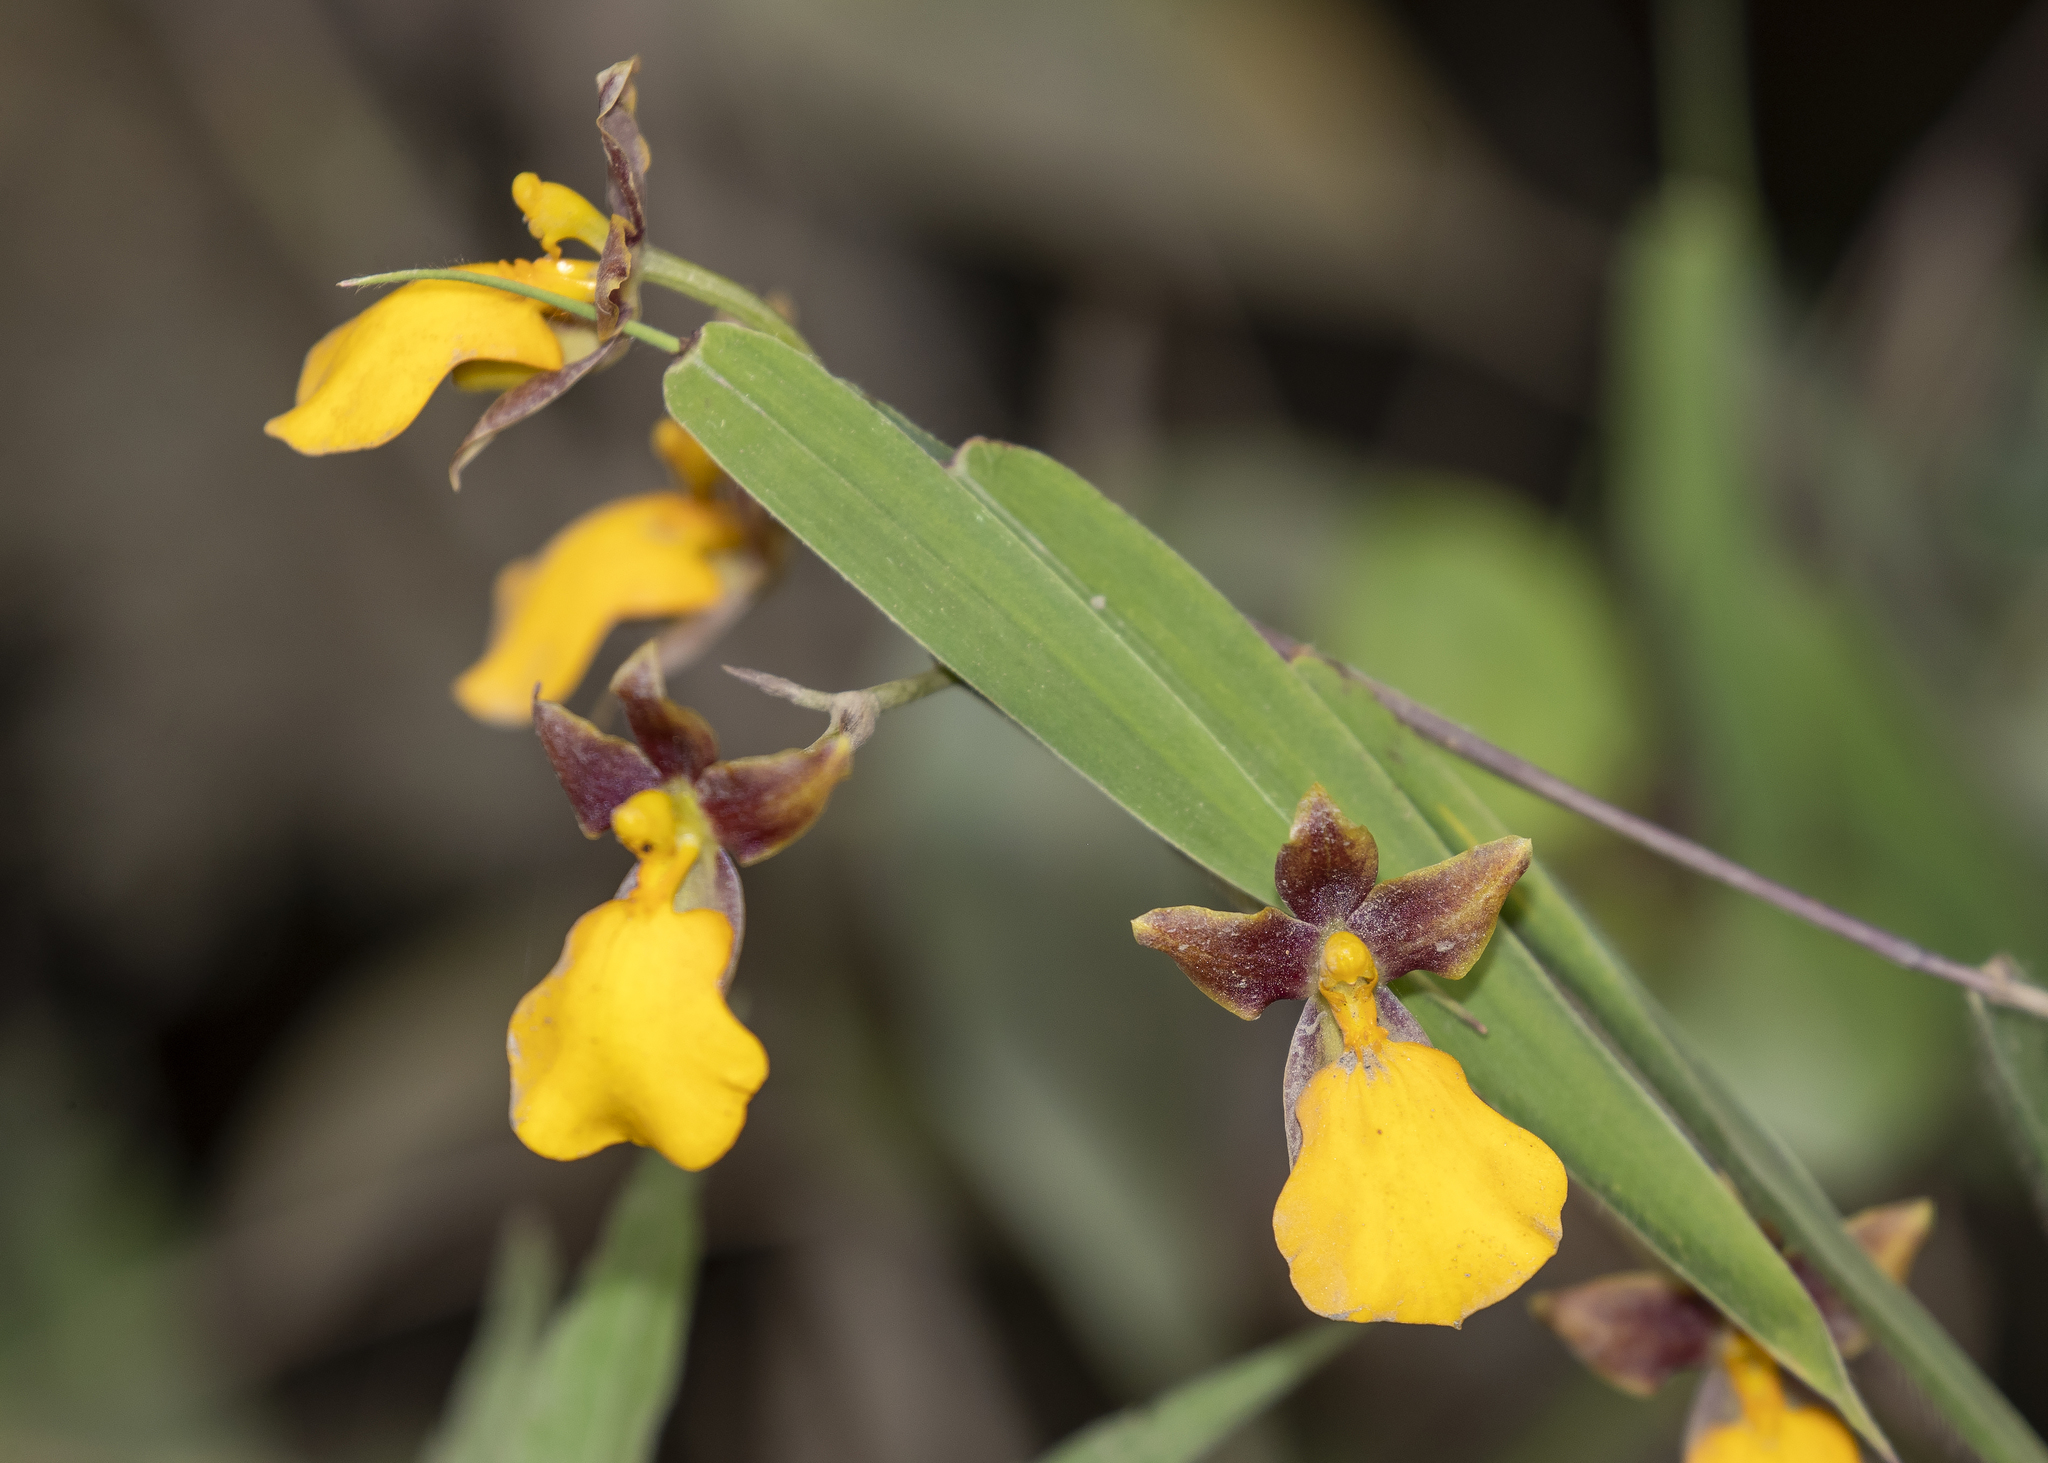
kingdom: Plantae
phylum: Tracheophyta
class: Liliopsida
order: Asparagales
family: Orchidaceae
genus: Cyrtochilum
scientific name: Cyrtochilum aureum
